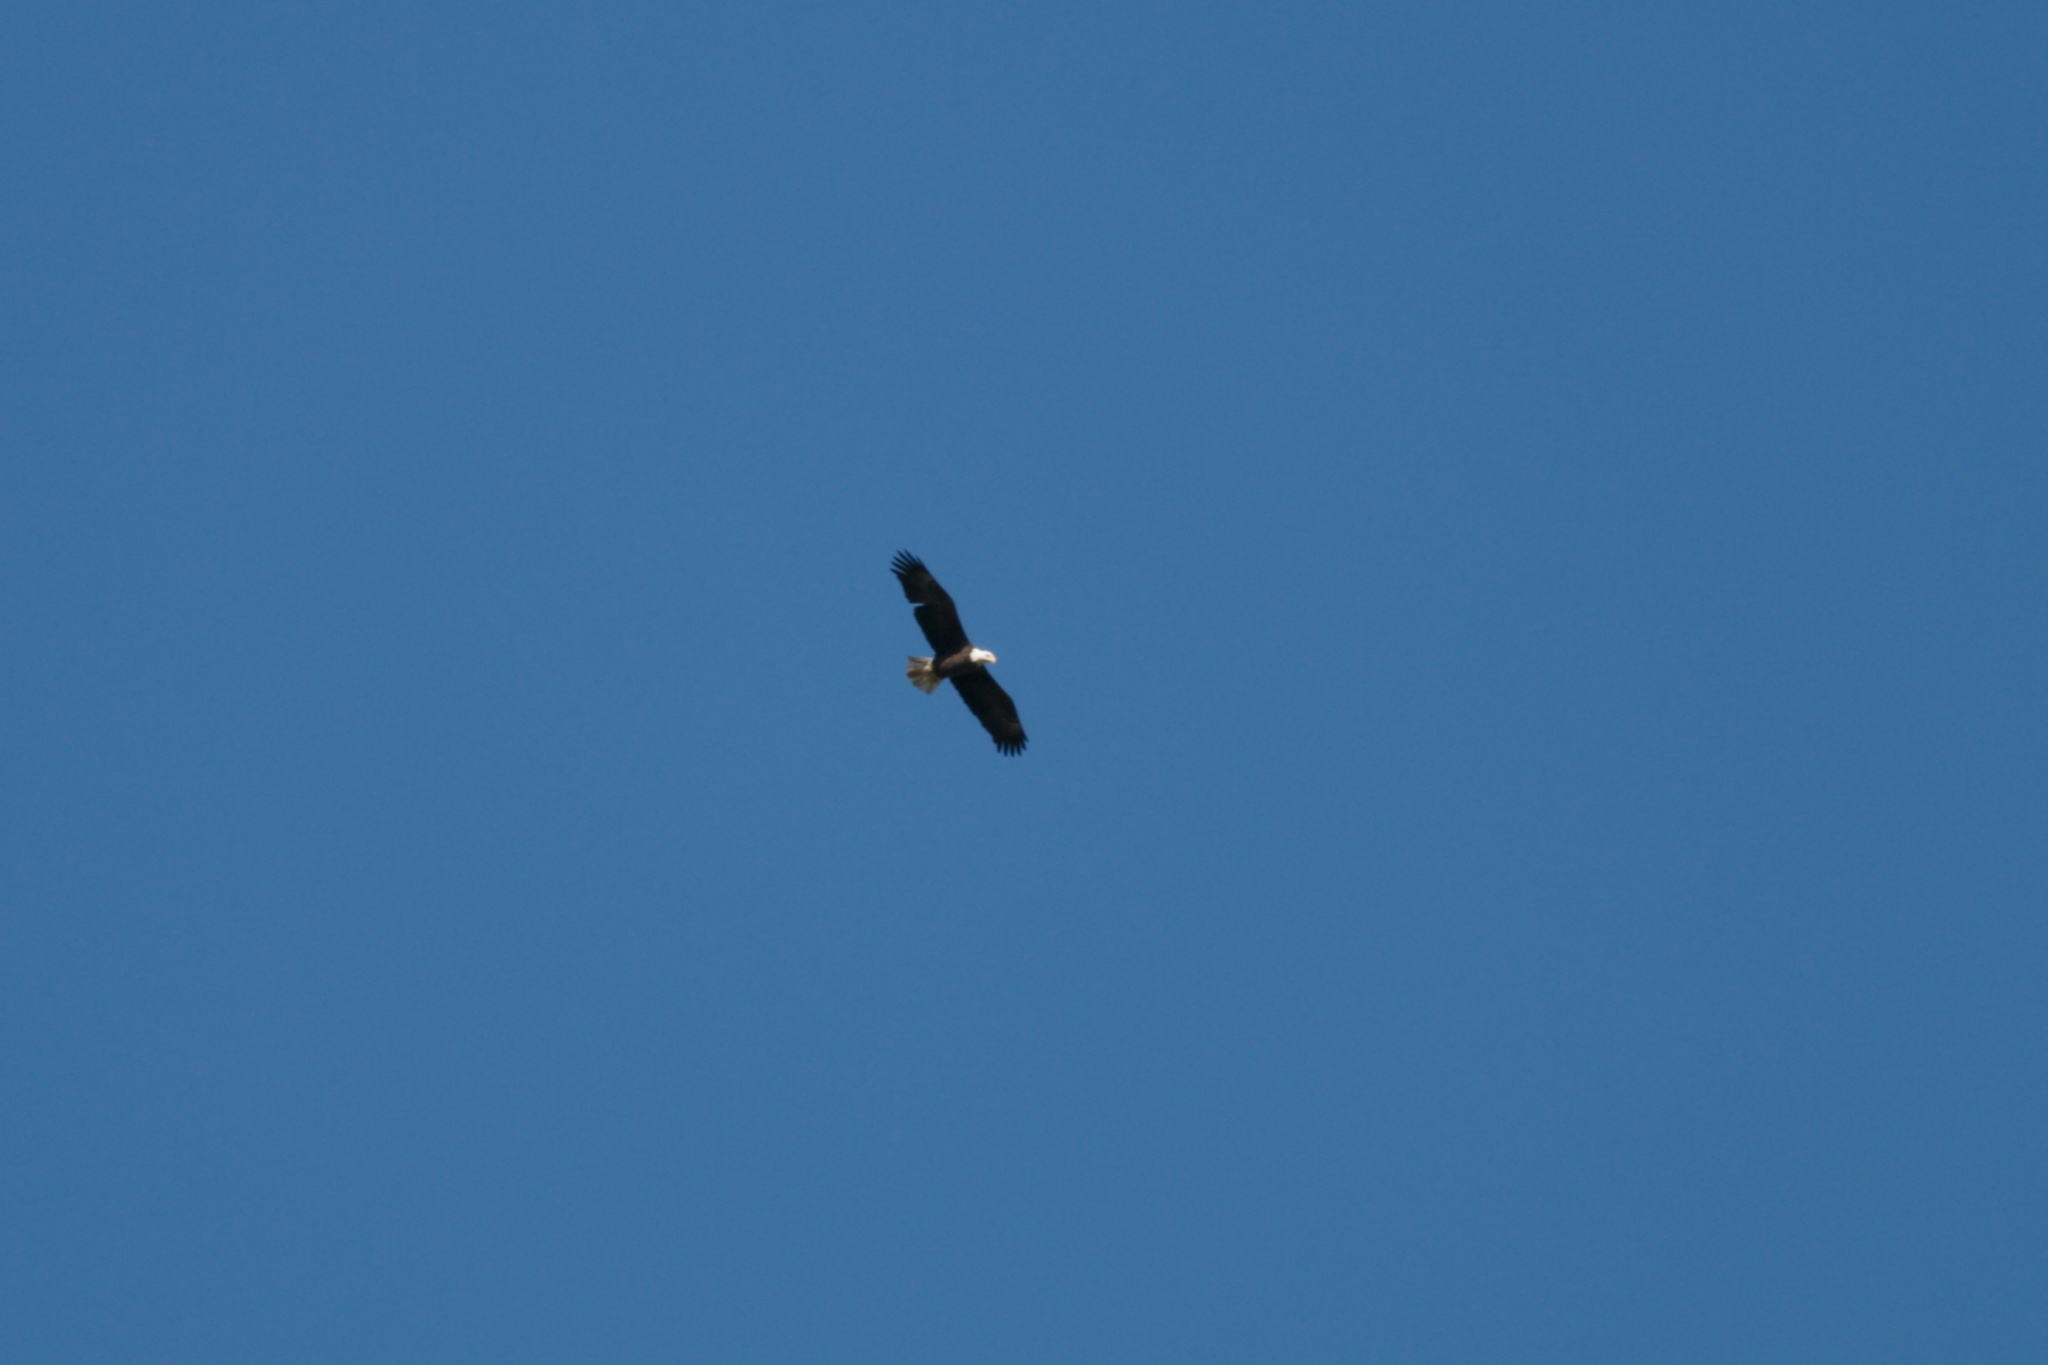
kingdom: Animalia
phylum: Chordata
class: Aves
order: Accipitriformes
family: Accipitridae
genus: Haliaeetus
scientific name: Haliaeetus leucocephalus
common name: Bald eagle
